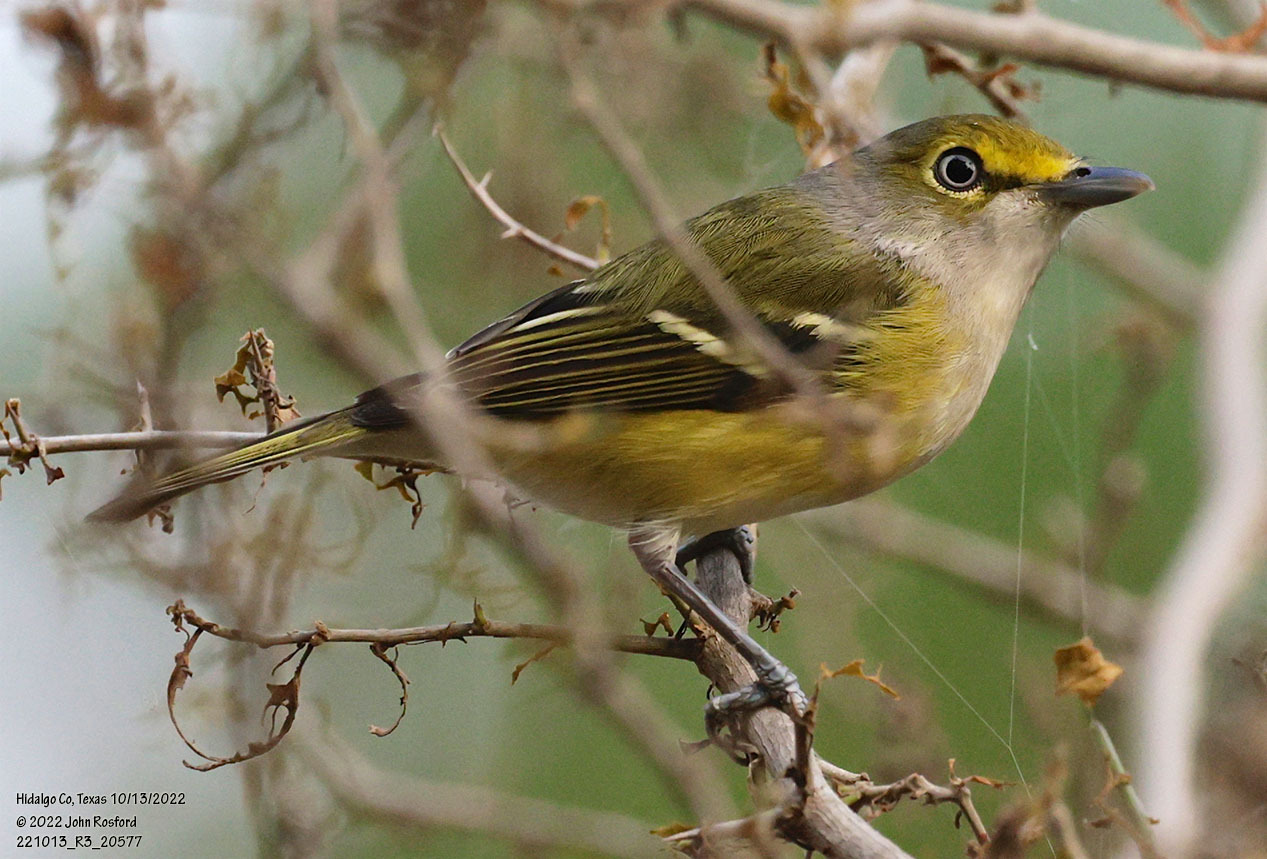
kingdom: Animalia
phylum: Chordata
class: Aves
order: Passeriformes
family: Vireonidae
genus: Vireo
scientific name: Vireo griseus
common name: White-eyed vireo
